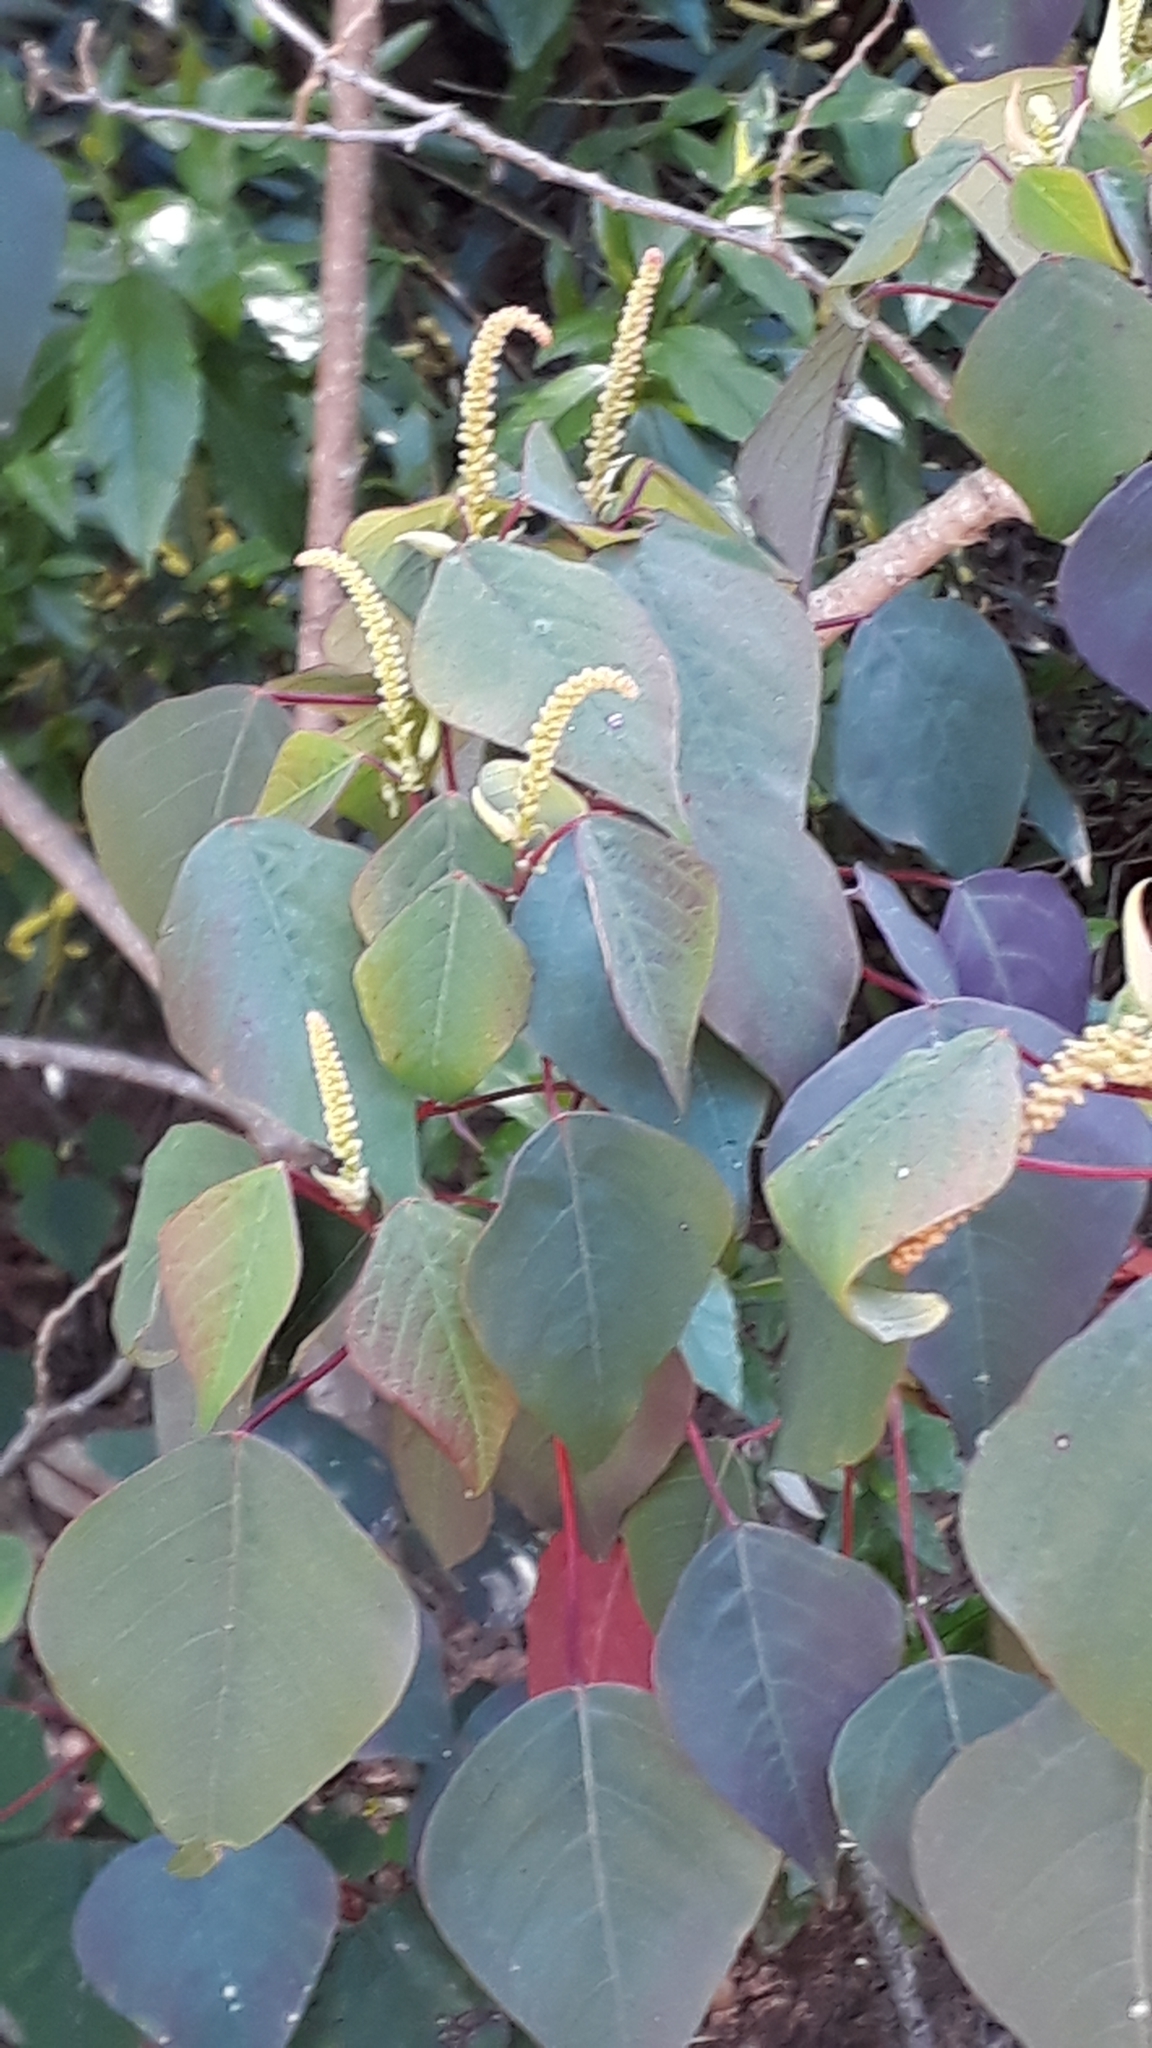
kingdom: Plantae
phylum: Tracheophyta
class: Magnoliopsida
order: Malpighiales
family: Euphorbiaceae
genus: Homalanthus
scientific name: Homalanthus populifolius
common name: Queensland poplar
